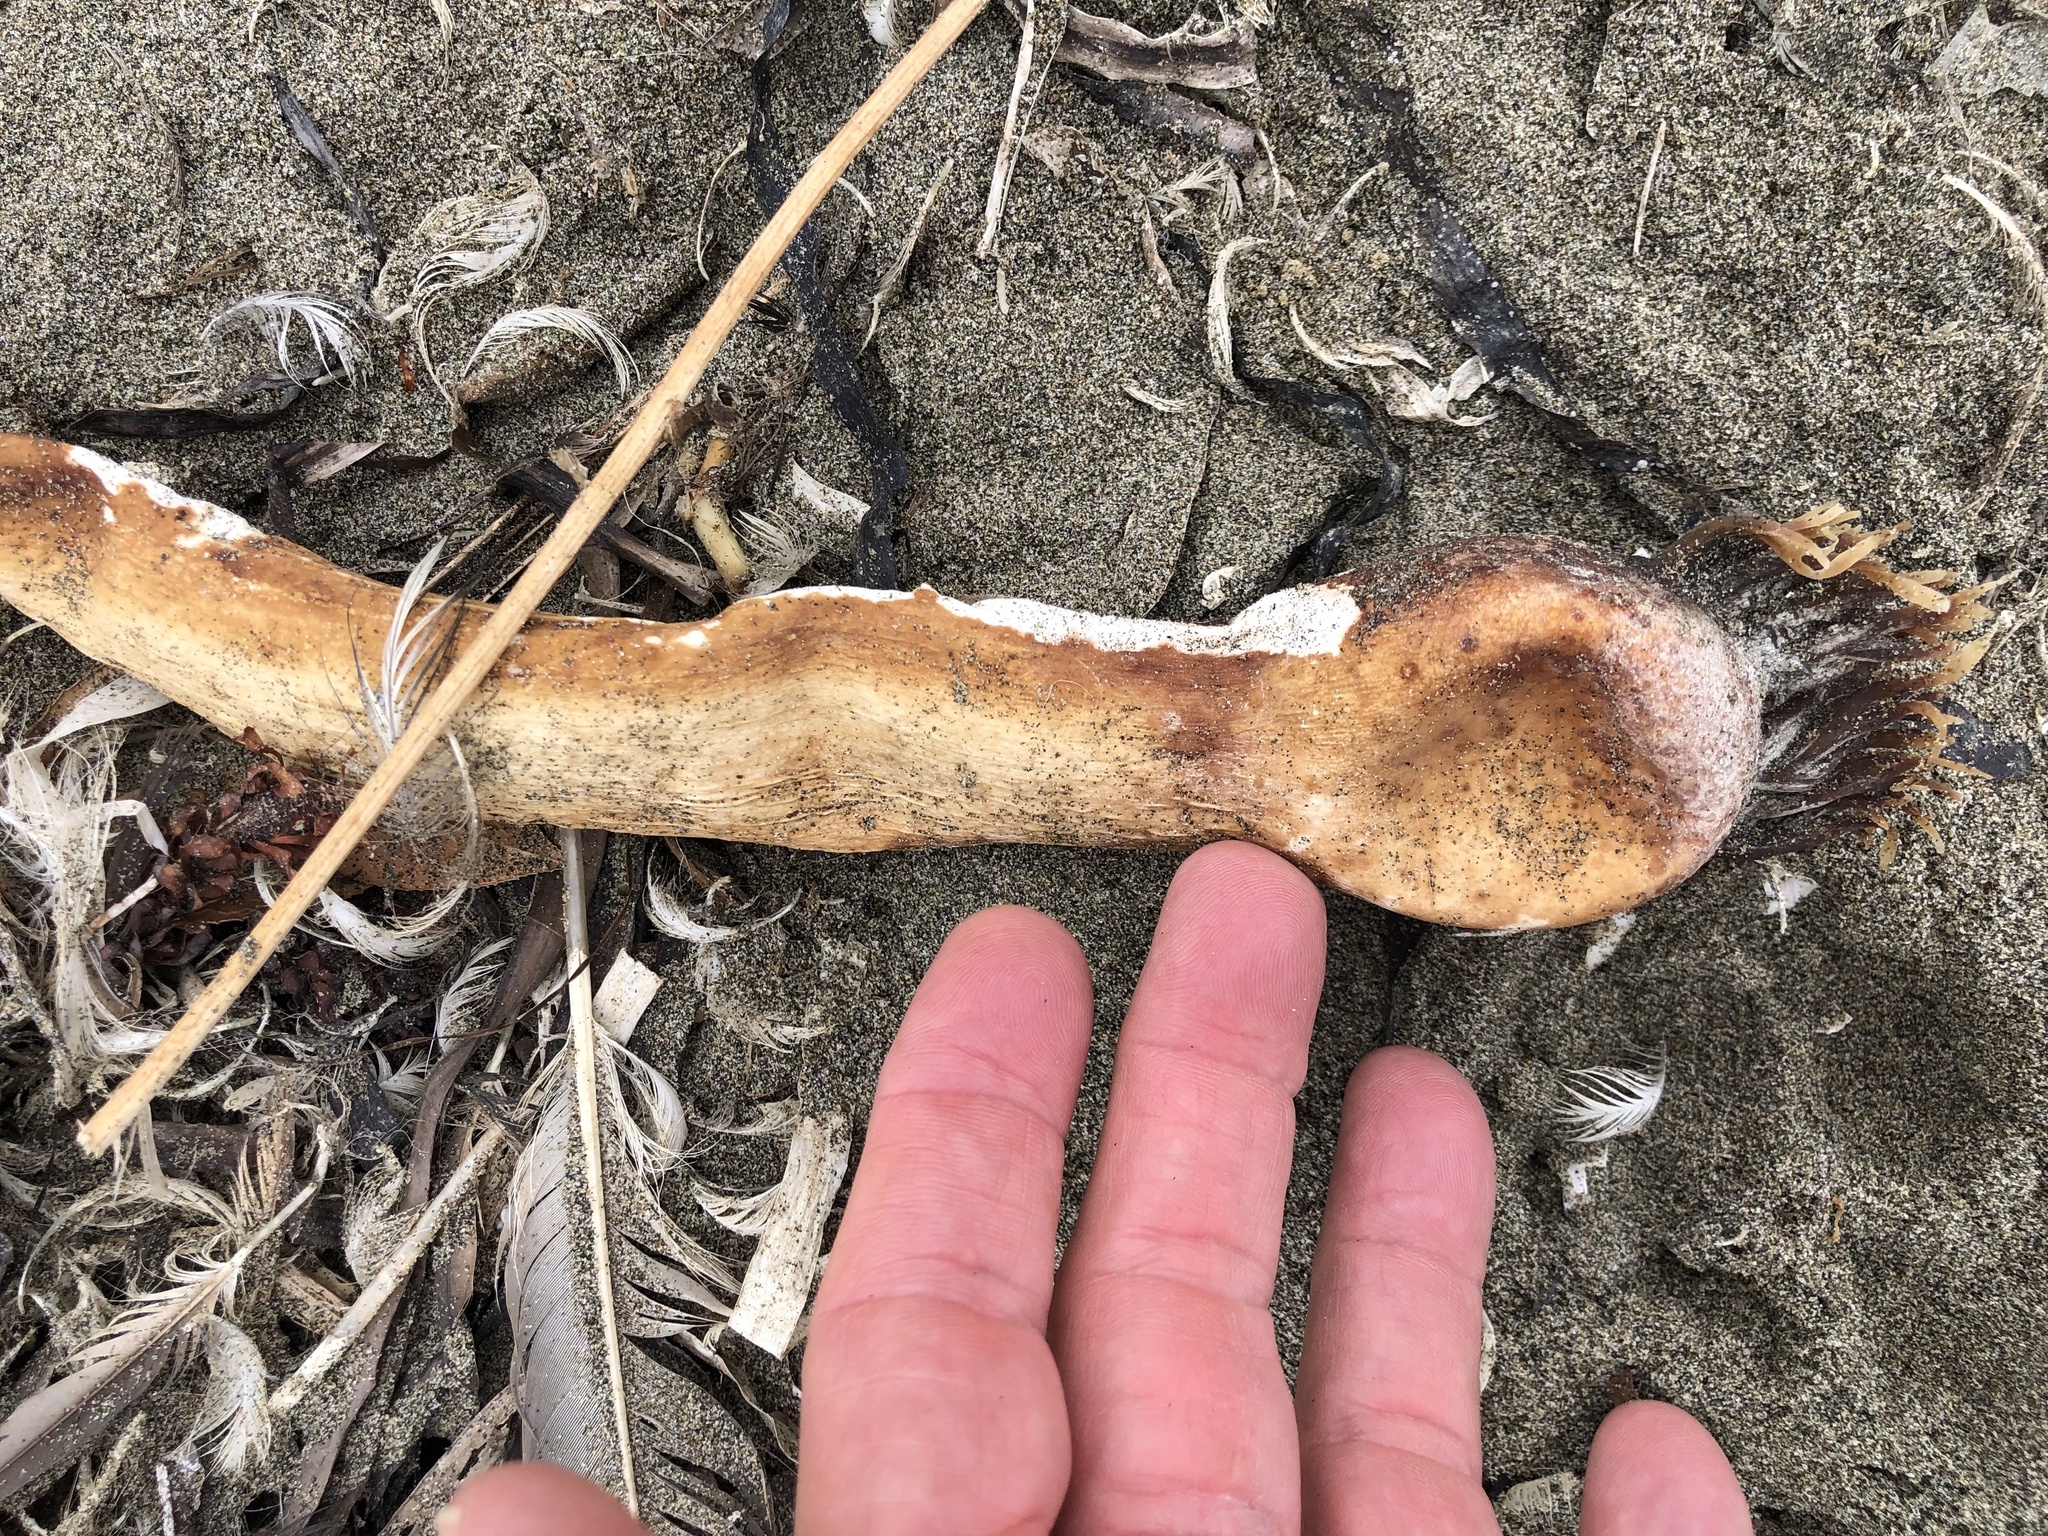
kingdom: Chromista
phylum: Ochrophyta
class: Phaeophyceae
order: Laminariales
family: Laminariaceae
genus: Nereocystis
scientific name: Nereocystis luetkeana
